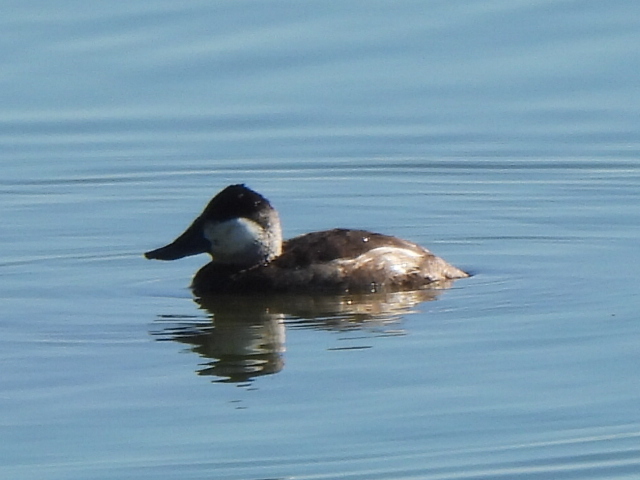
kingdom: Animalia
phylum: Chordata
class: Aves
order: Anseriformes
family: Anatidae
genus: Oxyura
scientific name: Oxyura jamaicensis
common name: Ruddy duck
